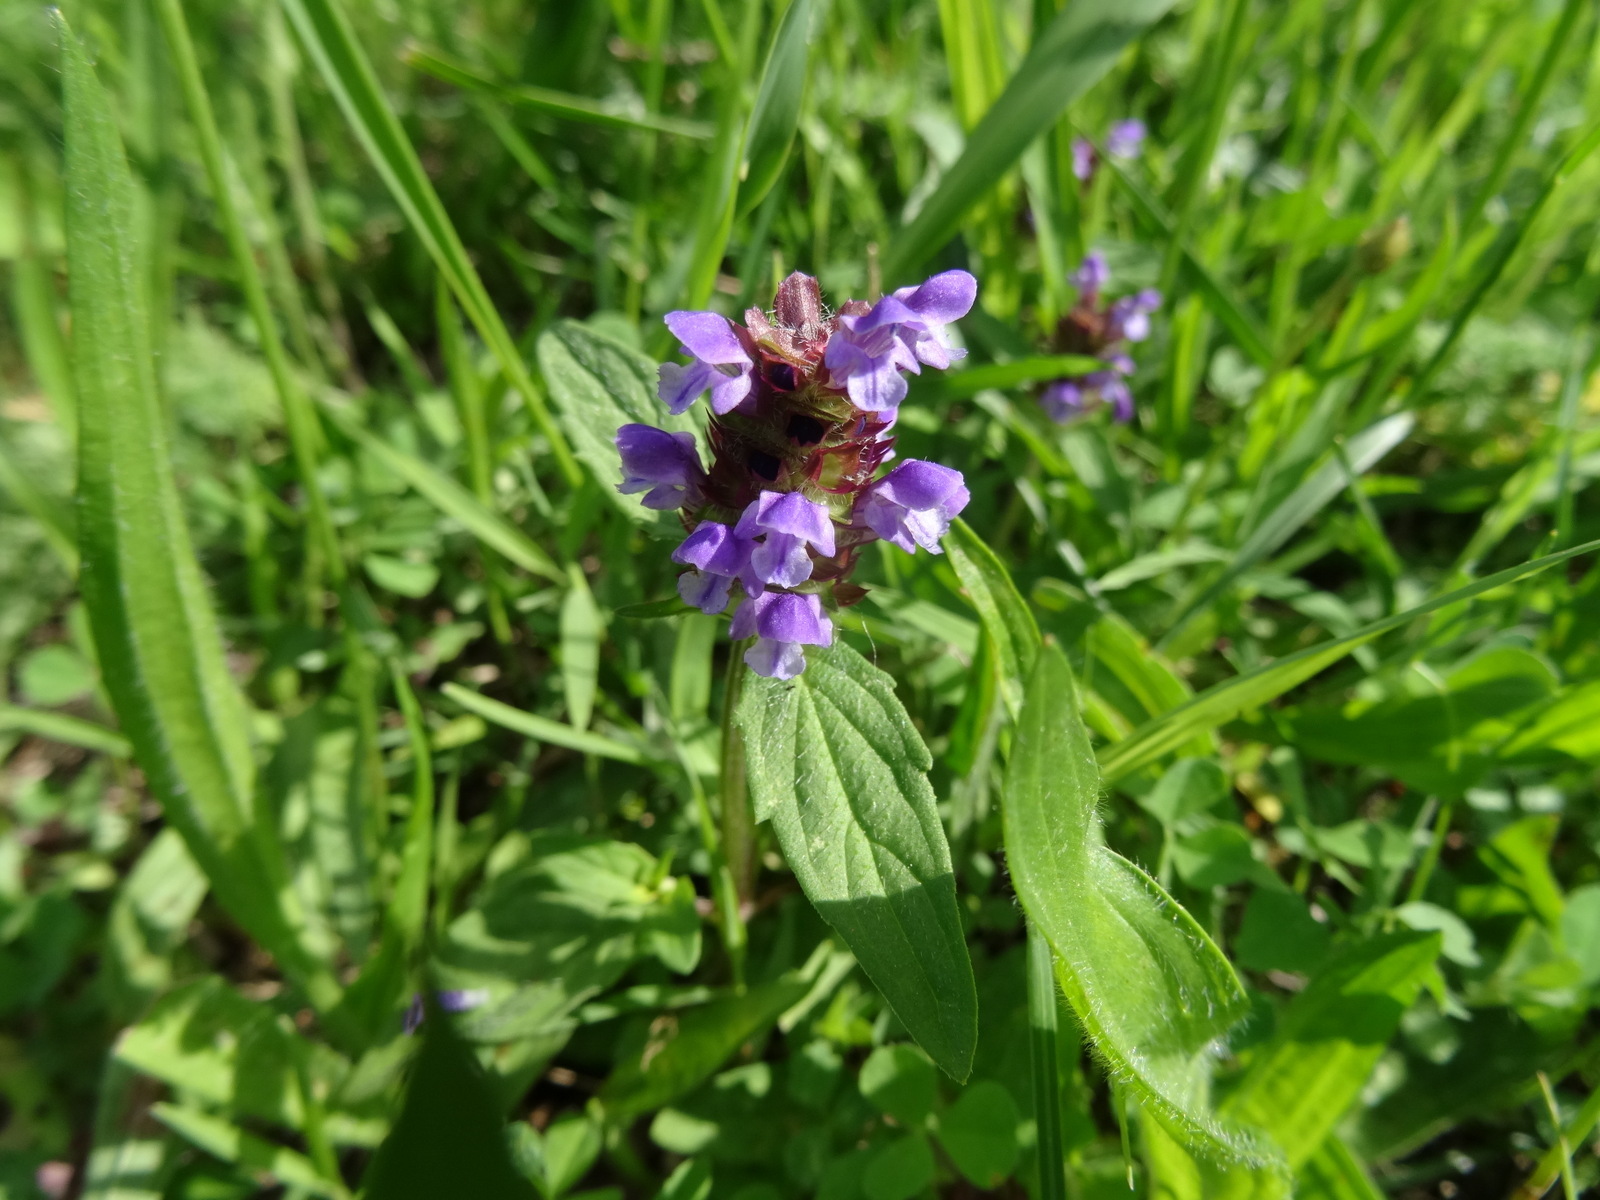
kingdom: Plantae
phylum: Tracheophyta
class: Magnoliopsida
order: Lamiales
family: Lamiaceae
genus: Prunella
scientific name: Prunella vulgaris
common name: Heal-all
